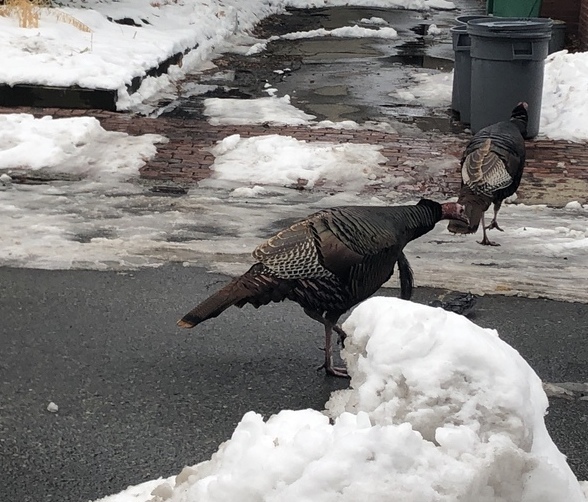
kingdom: Animalia
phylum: Chordata
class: Aves
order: Galliformes
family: Phasianidae
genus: Meleagris
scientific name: Meleagris gallopavo
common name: Wild turkey
